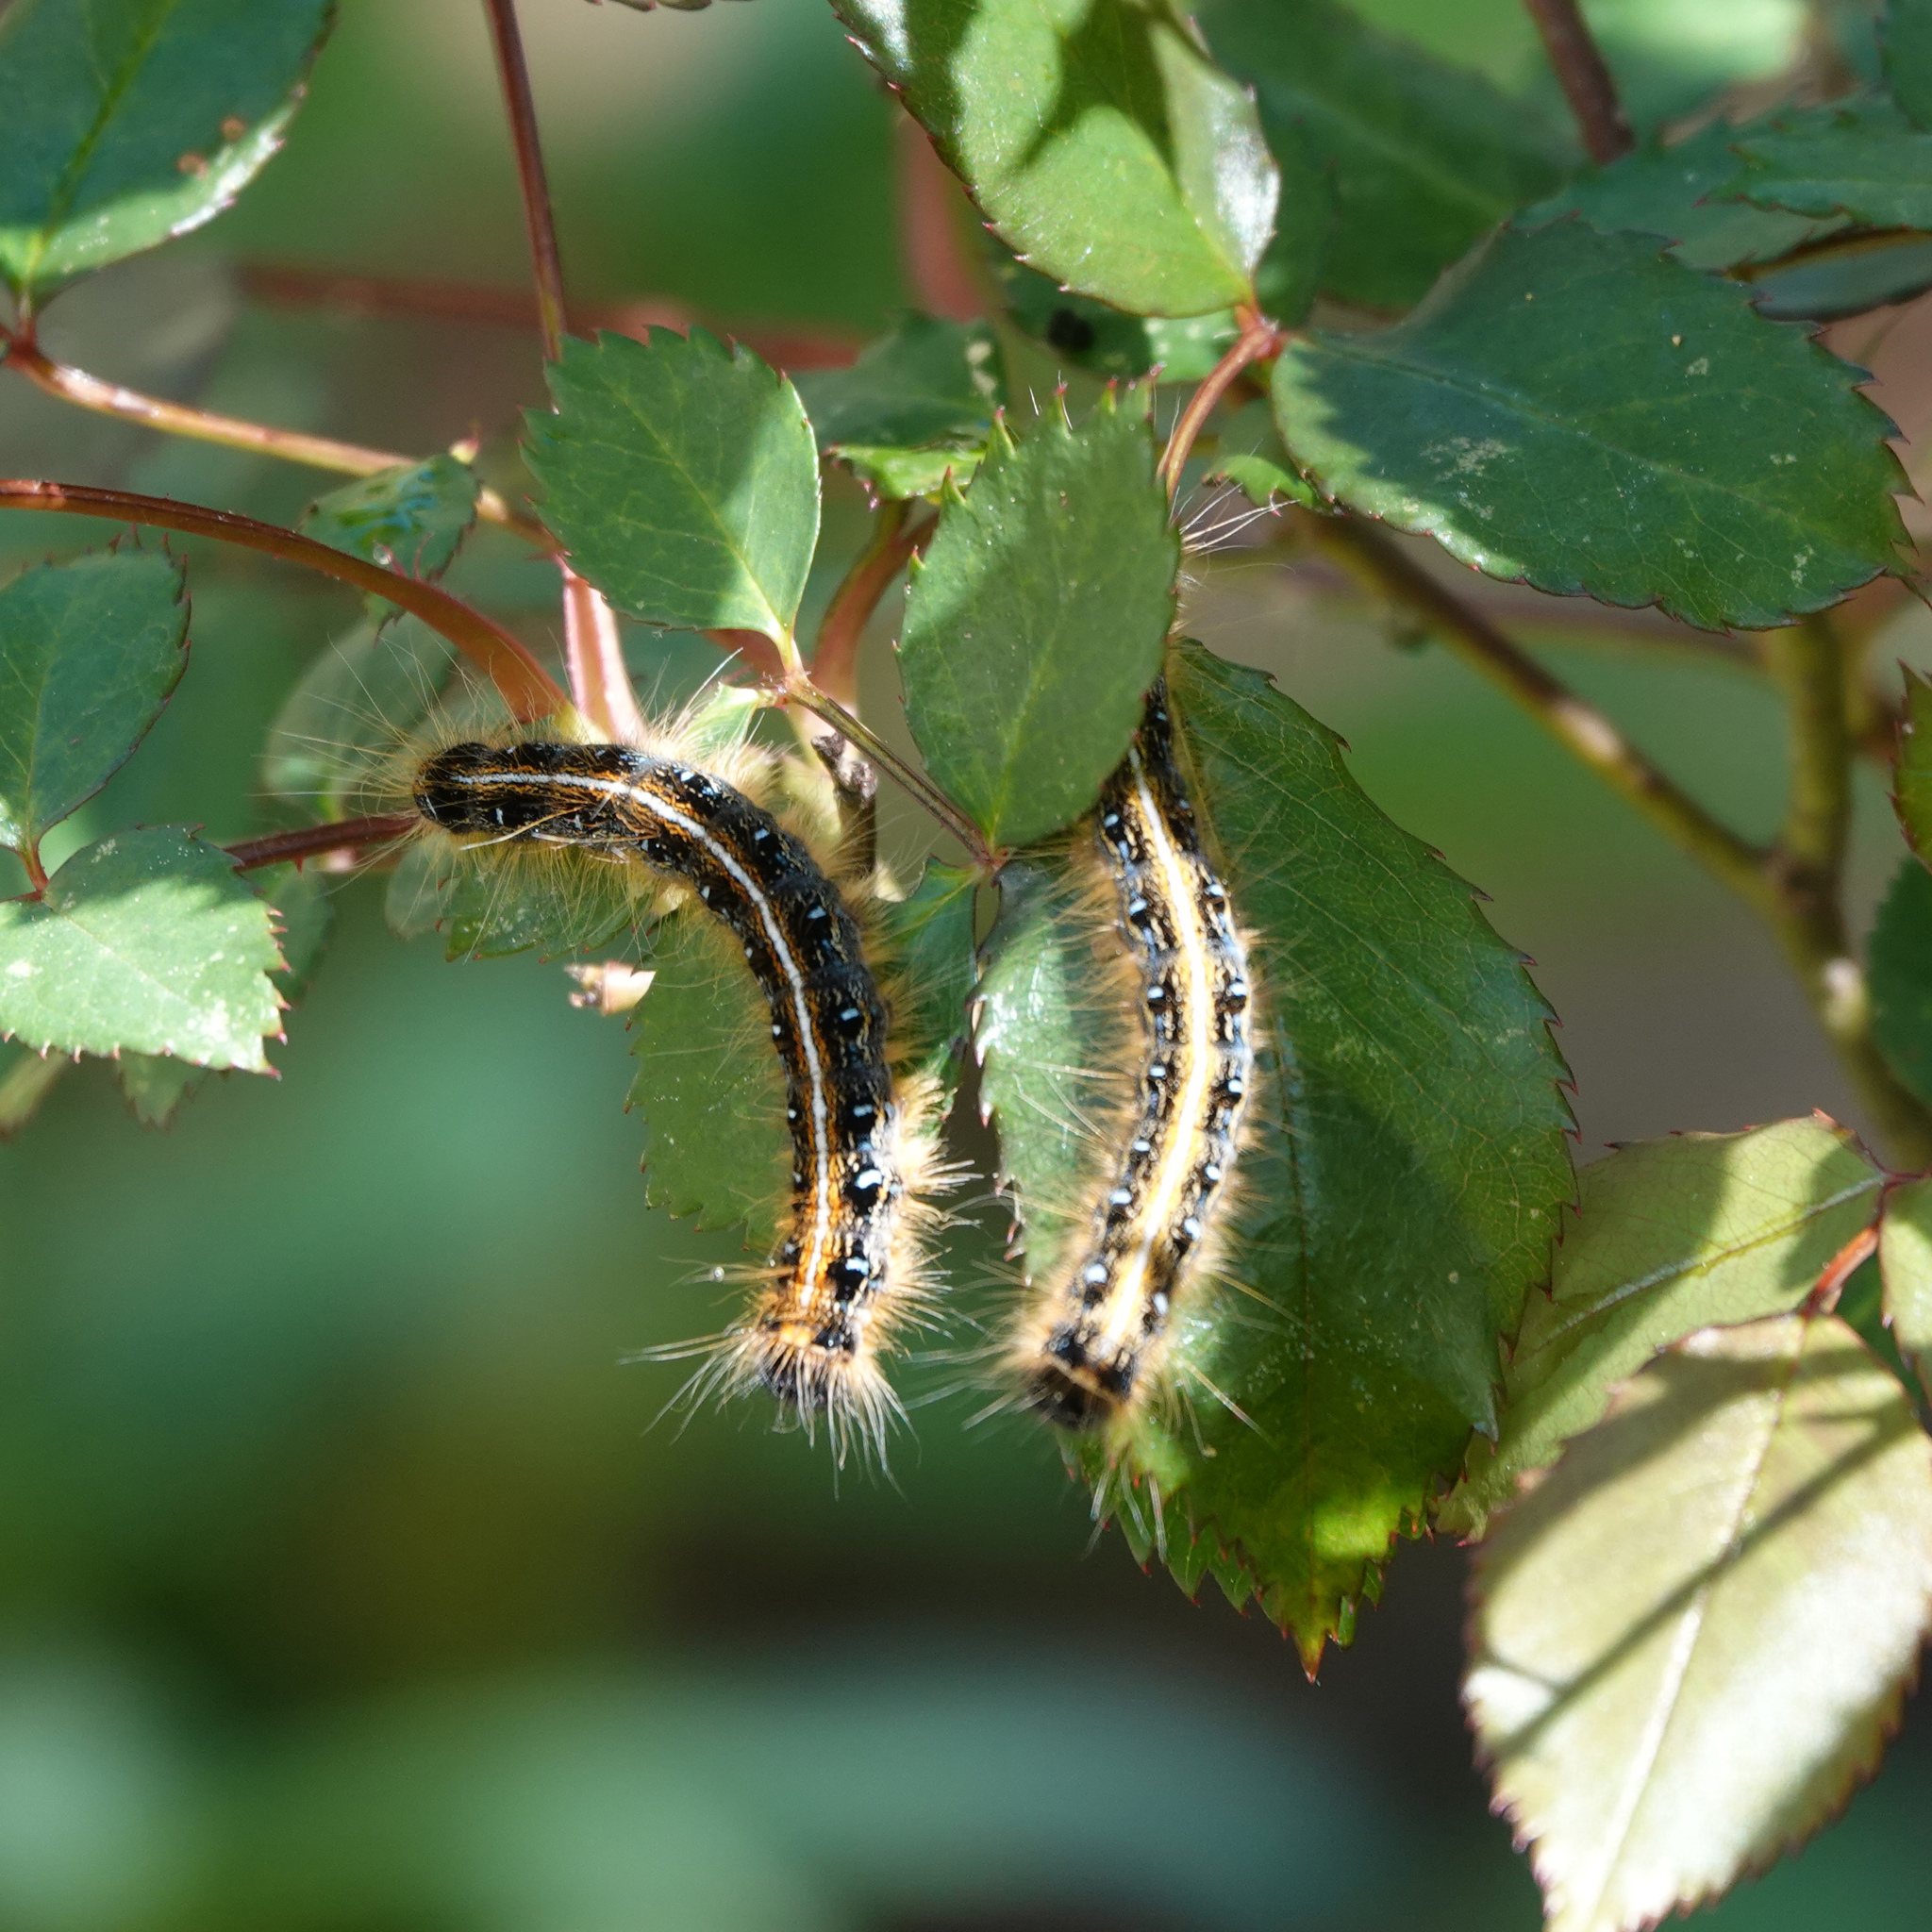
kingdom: Animalia
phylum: Arthropoda
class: Insecta
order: Lepidoptera
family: Lasiocampidae
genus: Malacosoma
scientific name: Malacosoma americana
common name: Eastern tent caterpillar moth
